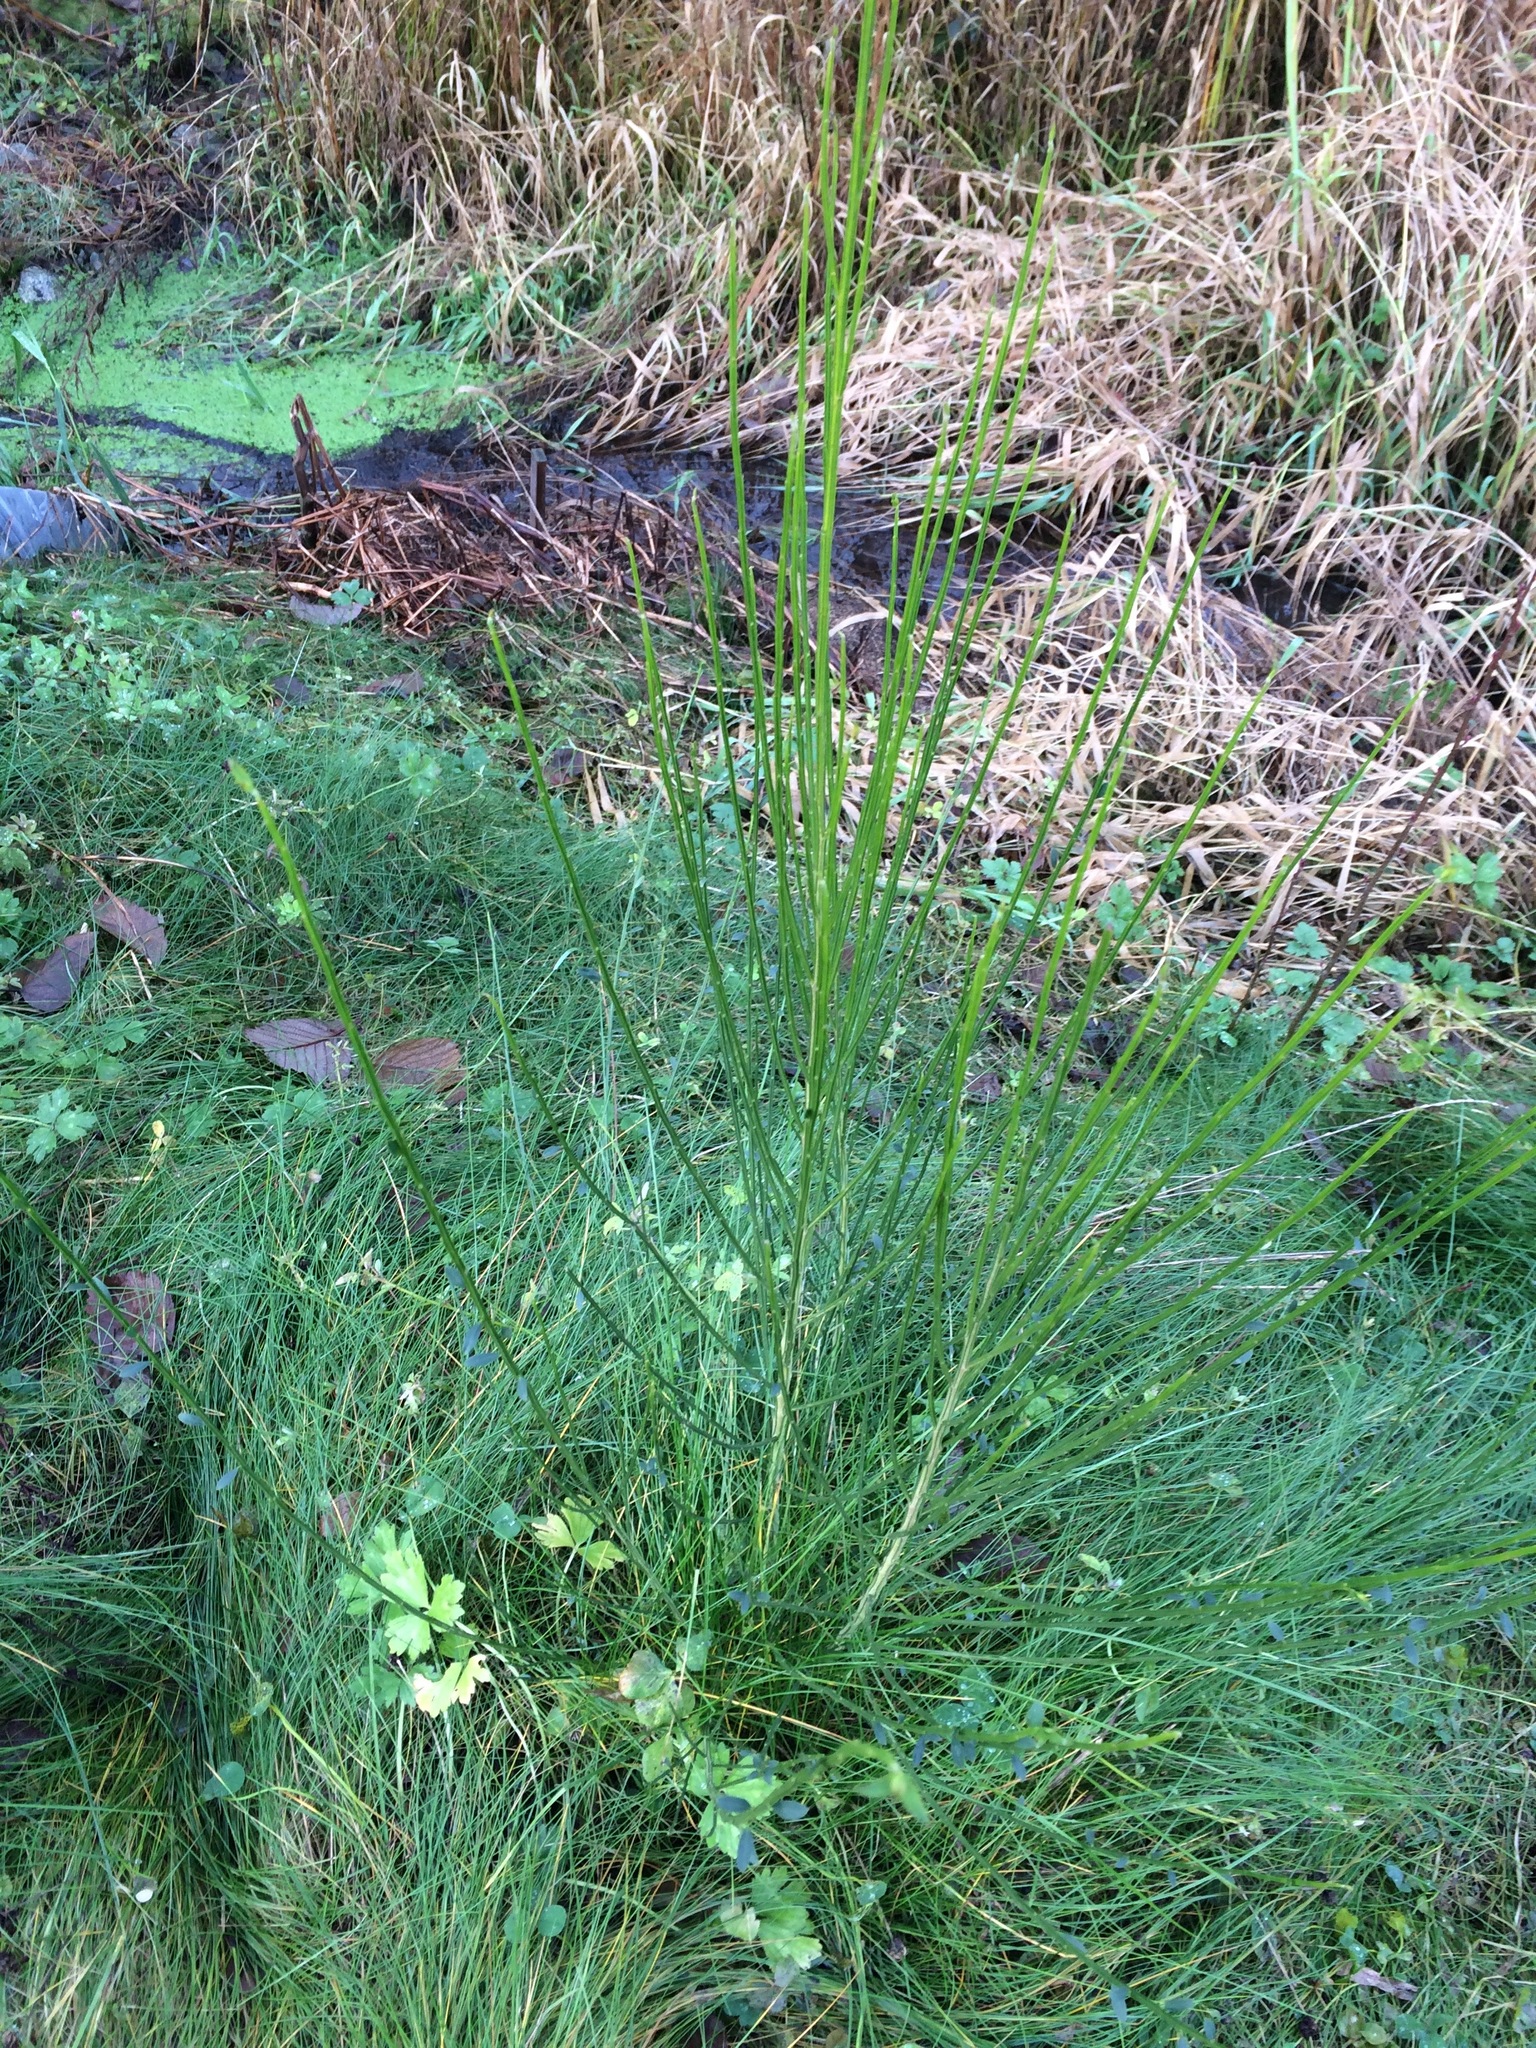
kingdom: Plantae
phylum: Tracheophyta
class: Magnoliopsida
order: Fabales
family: Fabaceae
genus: Cytisus
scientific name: Cytisus scoparius
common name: Scotch broom
